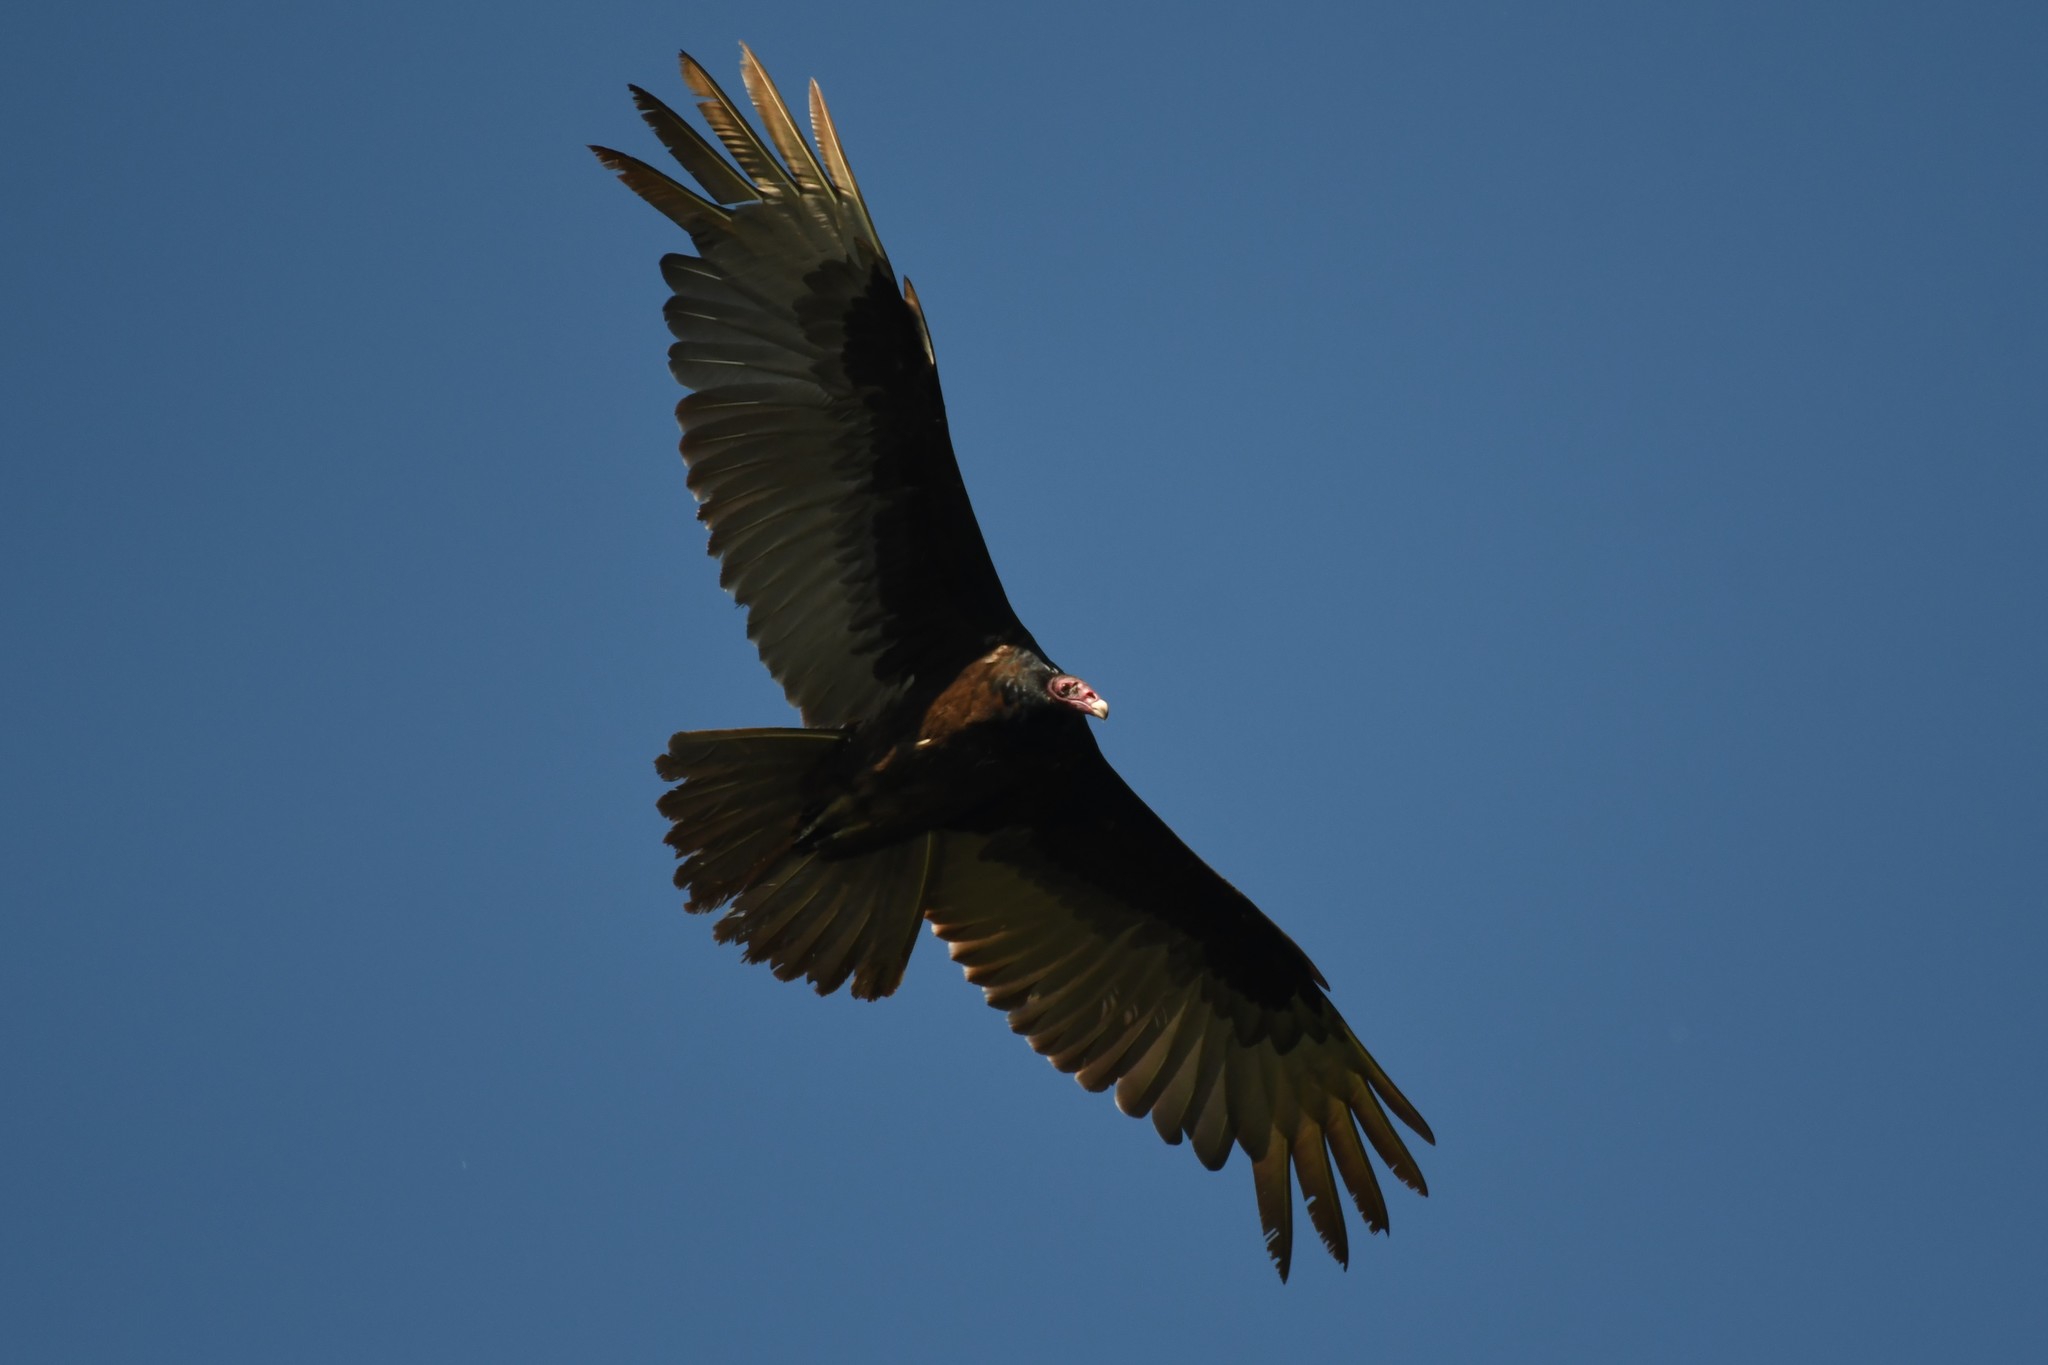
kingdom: Animalia
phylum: Chordata
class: Aves
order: Accipitriformes
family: Cathartidae
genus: Cathartes
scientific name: Cathartes aura
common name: Turkey vulture
